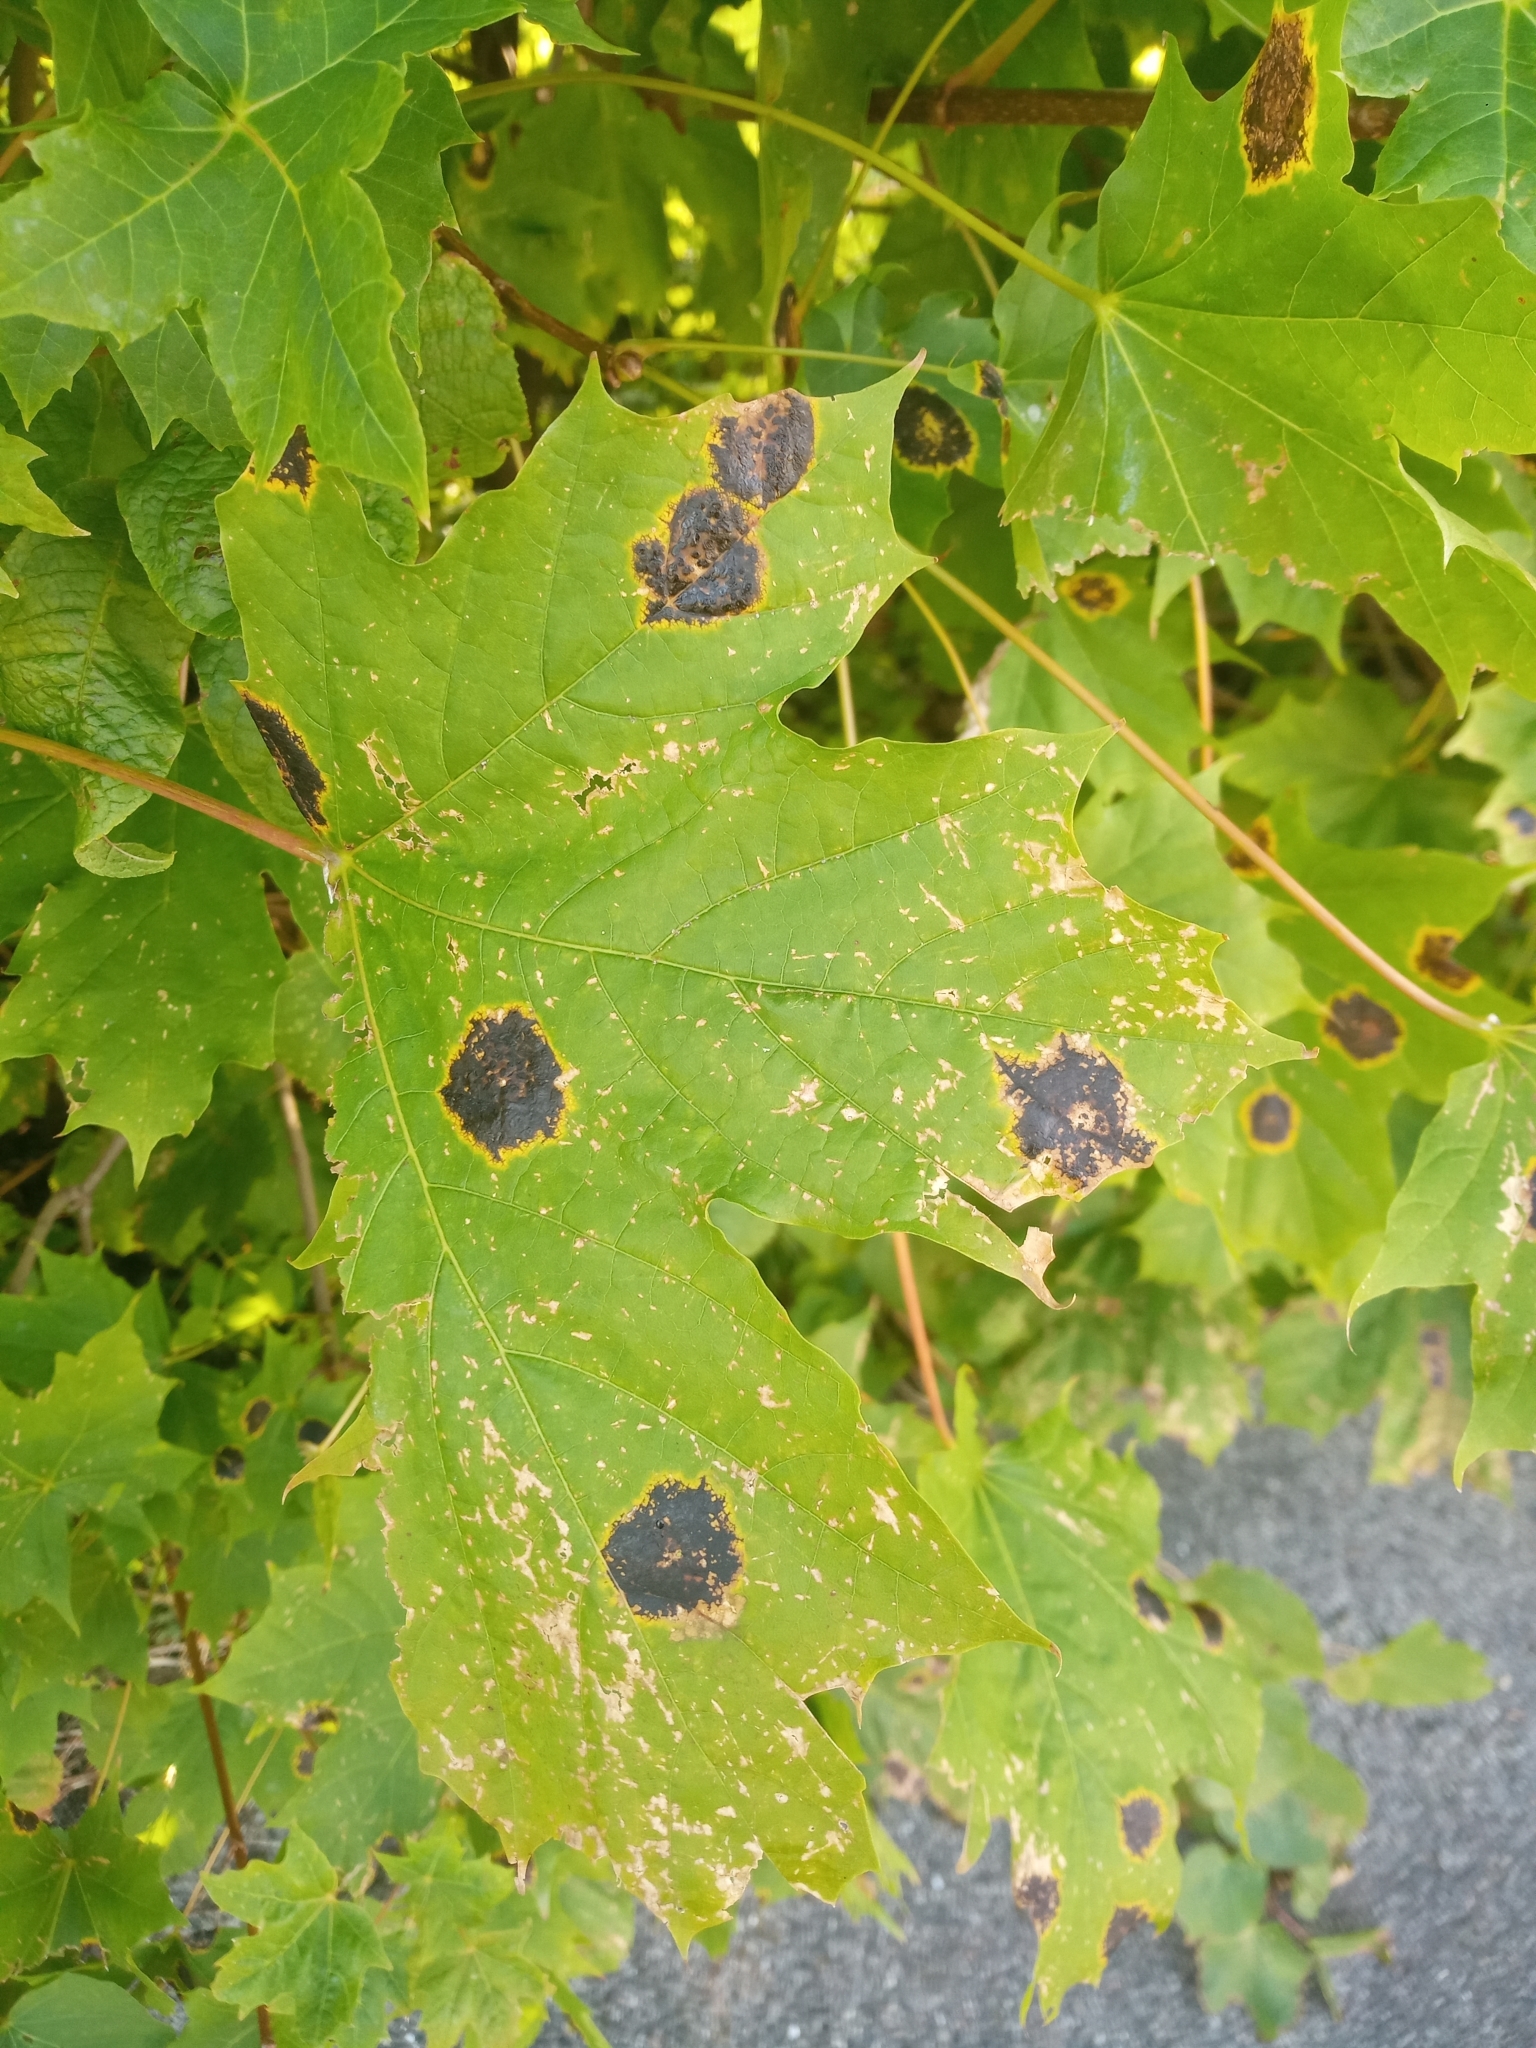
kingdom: Fungi
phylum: Ascomycota
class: Leotiomycetes
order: Rhytismatales
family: Rhytismataceae
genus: Rhytisma
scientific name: Rhytisma acerinum
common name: European tar spot
